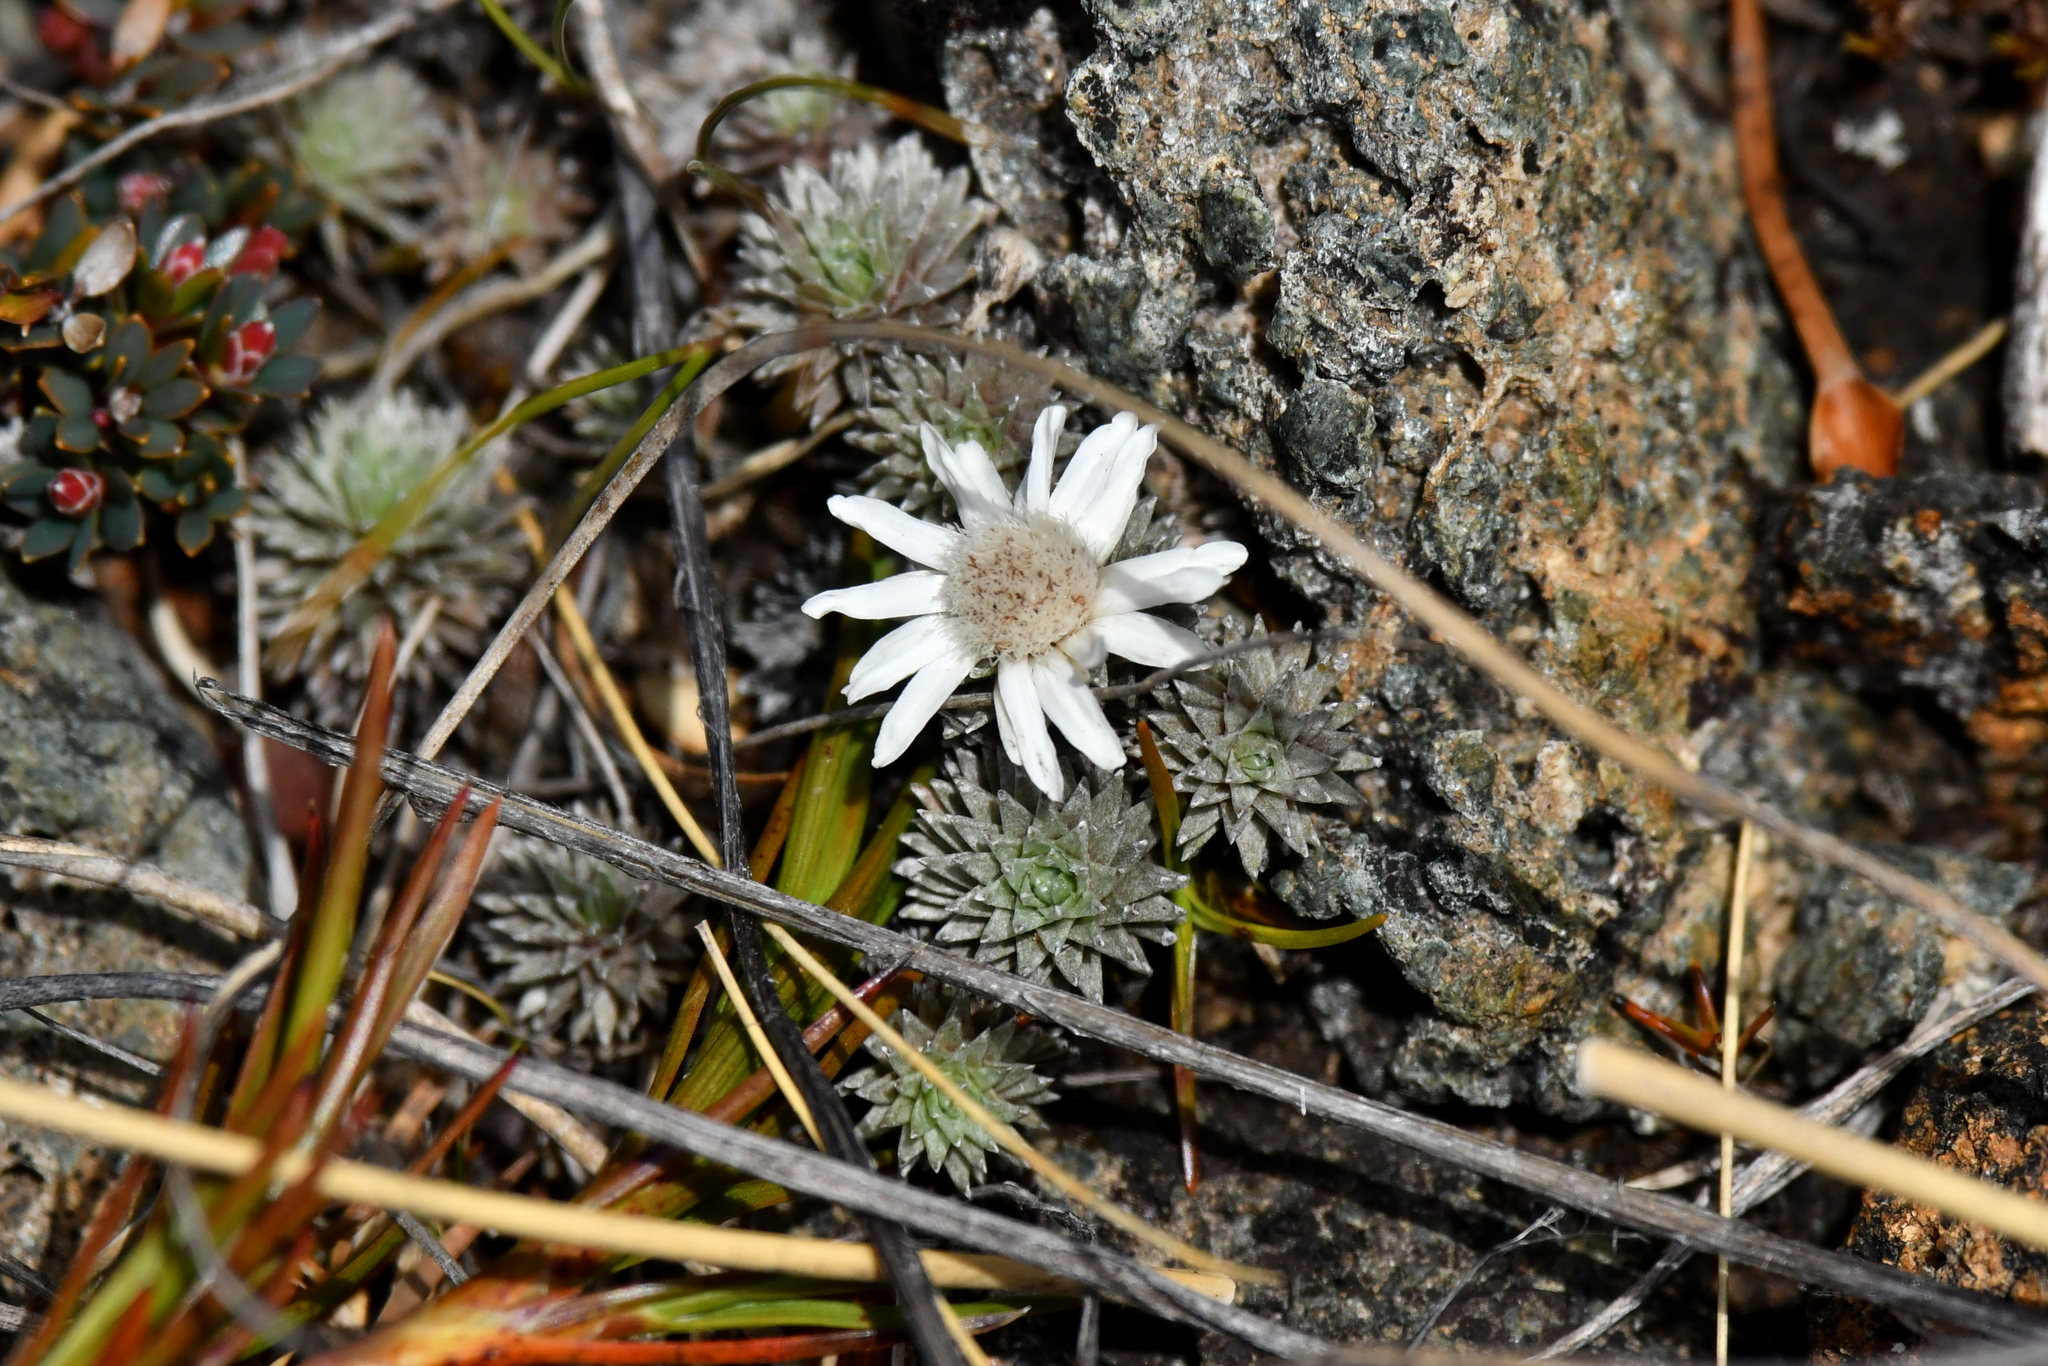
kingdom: Plantae
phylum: Tracheophyta
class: Magnoliopsida
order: Asterales
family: Asteraceae
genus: Raoulia
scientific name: Raoulia grandiflora
